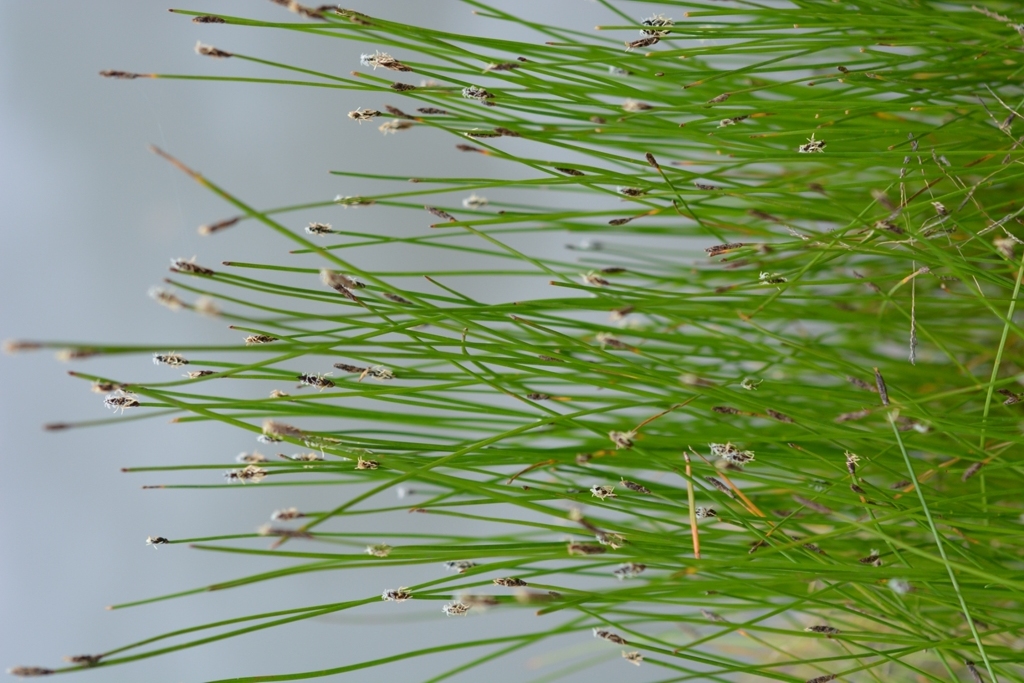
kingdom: Plantae
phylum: Tracheophyta
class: Liliopsida
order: Poales
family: Cyperaceae
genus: Eleocharis
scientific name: Eleocharis macrostachya
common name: Pale spikerush
